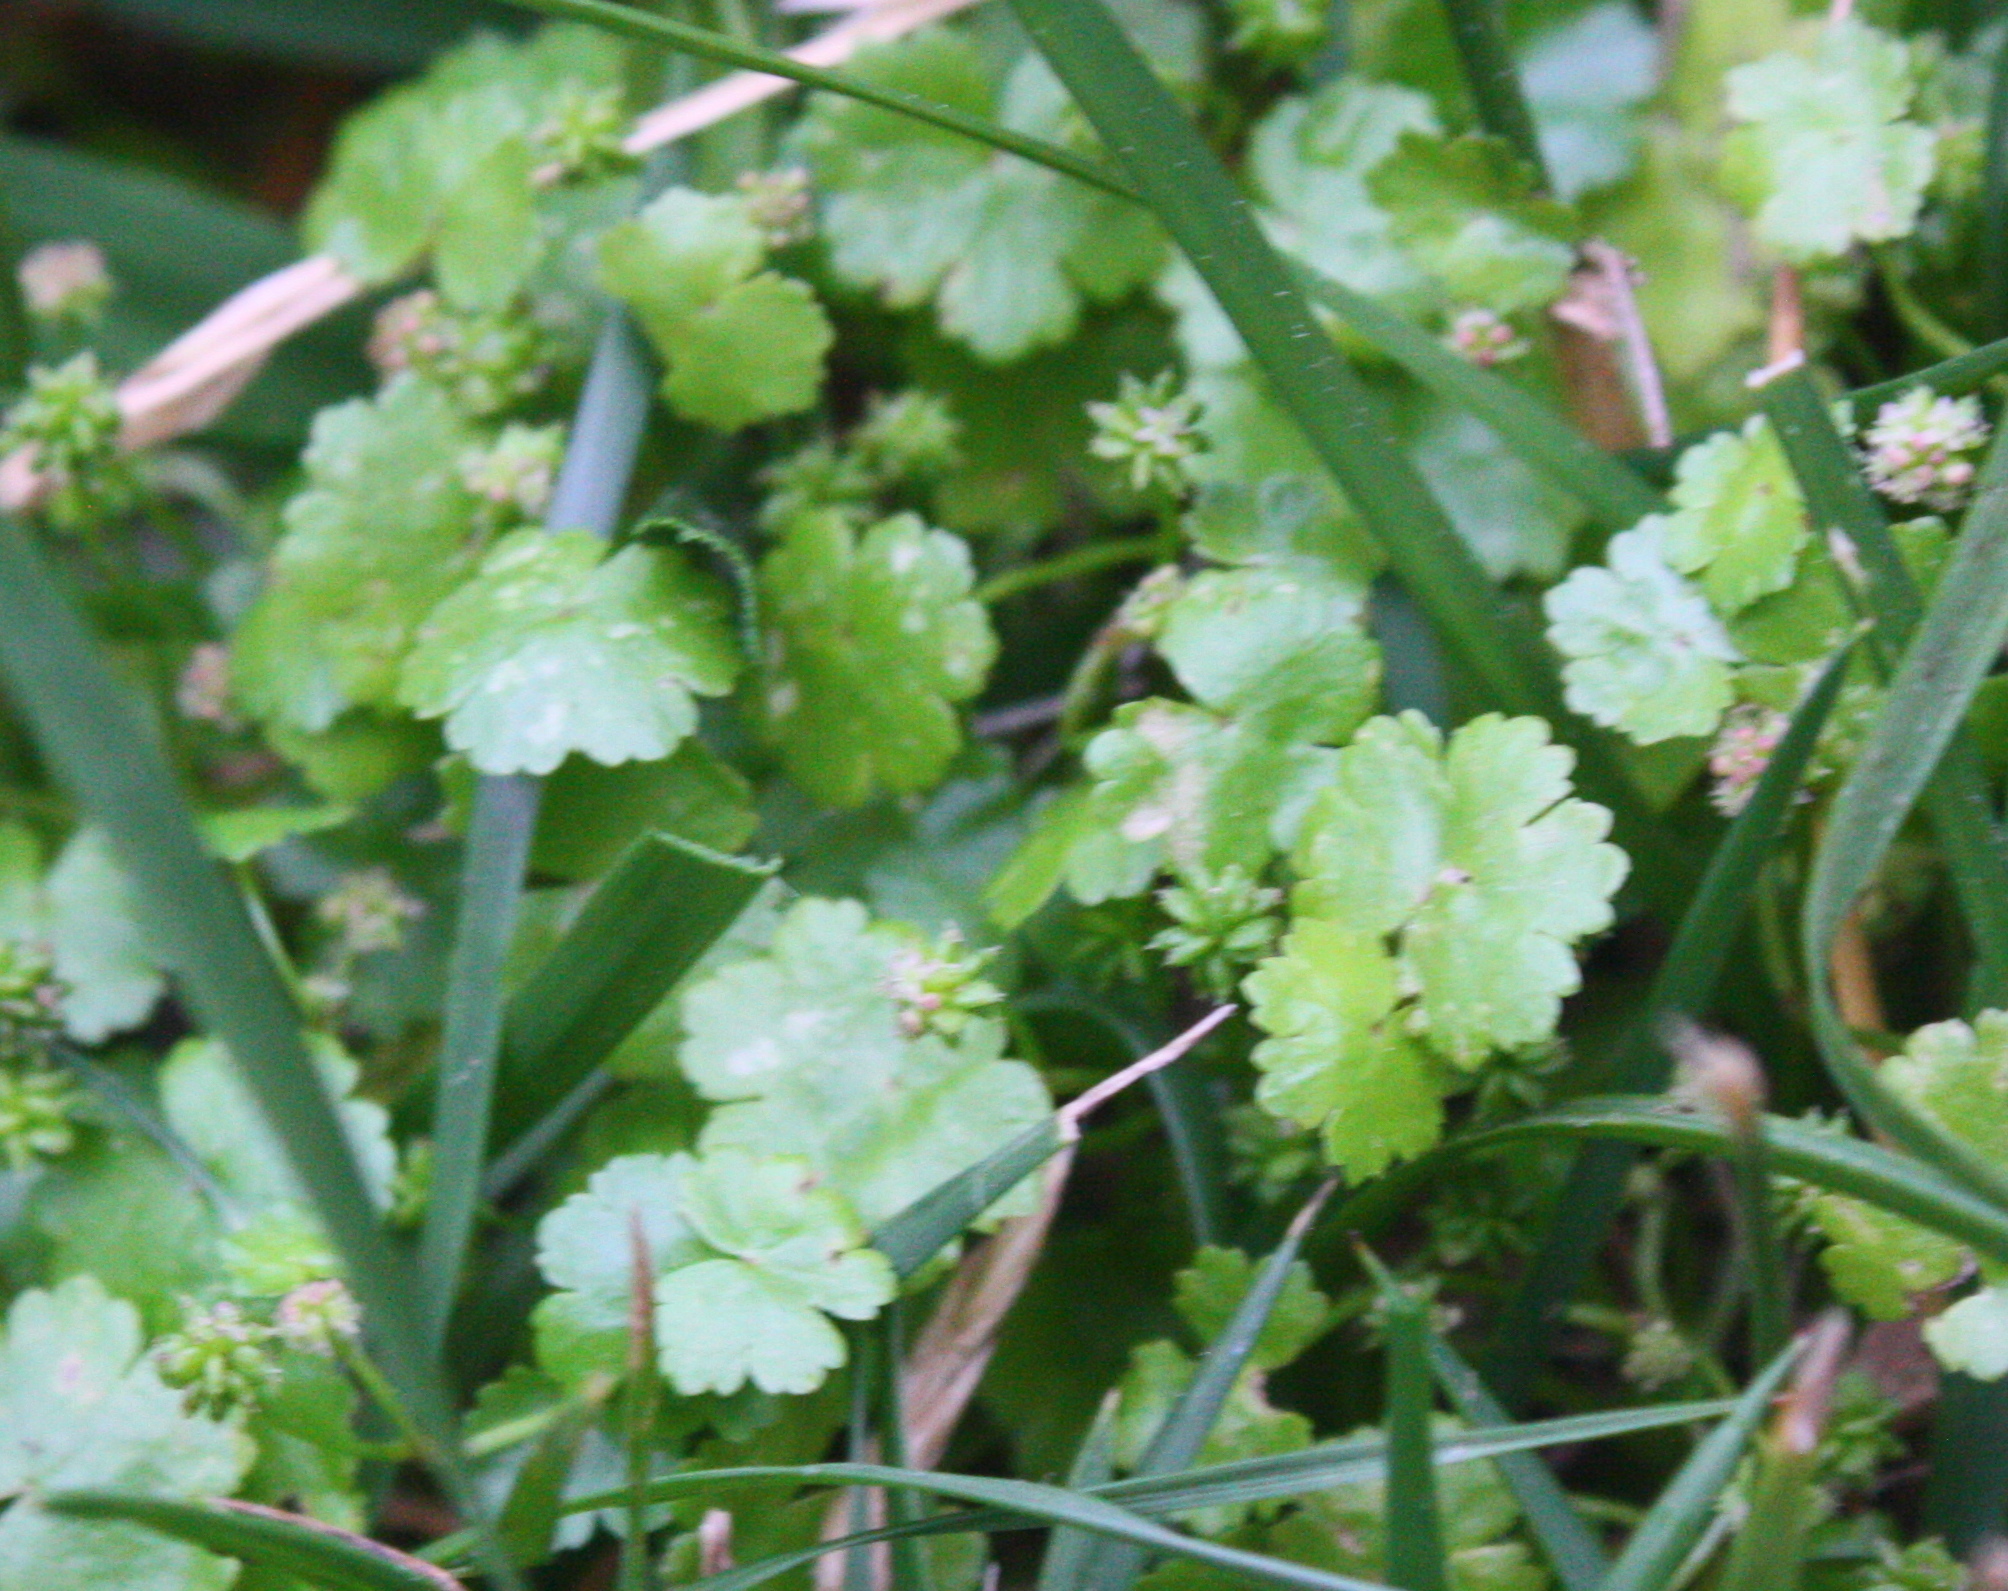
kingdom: Plantae
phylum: Tracheophyta
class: Magnoliopsida
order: Apiales
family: Araliaceae
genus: Hydrocotyle
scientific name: Hydrocotyle sibthorpioides
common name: Lawn marshpennywort
